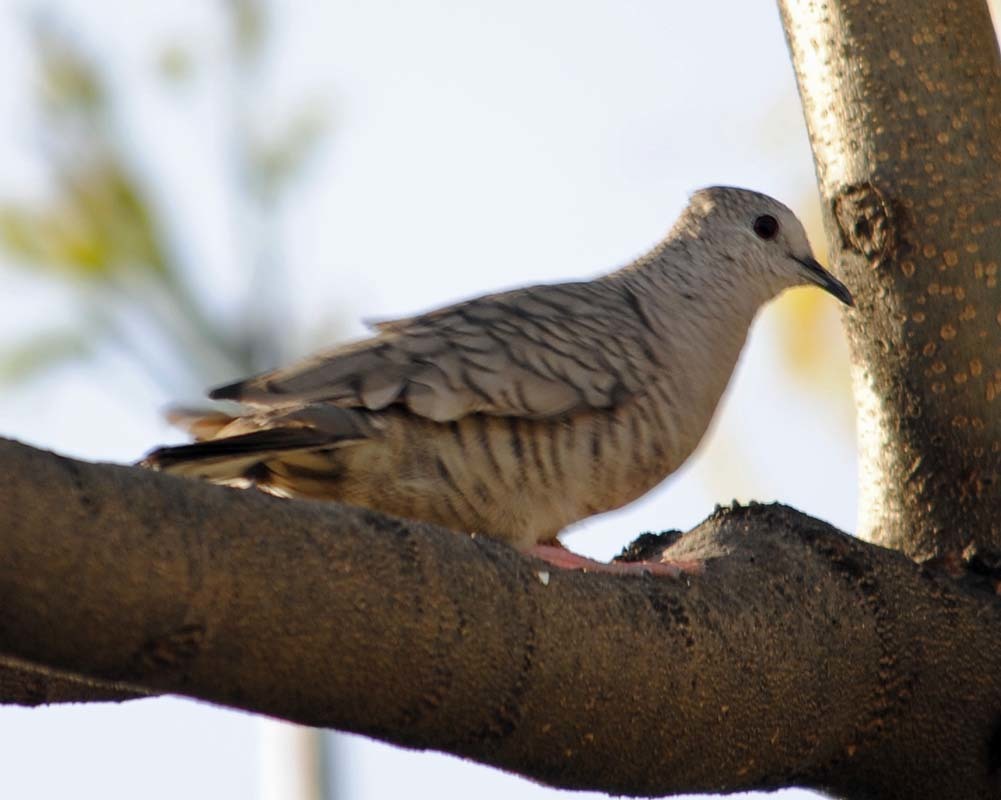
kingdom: Animalia
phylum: Chordata
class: Aves
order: Columbiformes
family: Columbidae
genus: Columbina
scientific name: Columbina inca
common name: Inca dove
